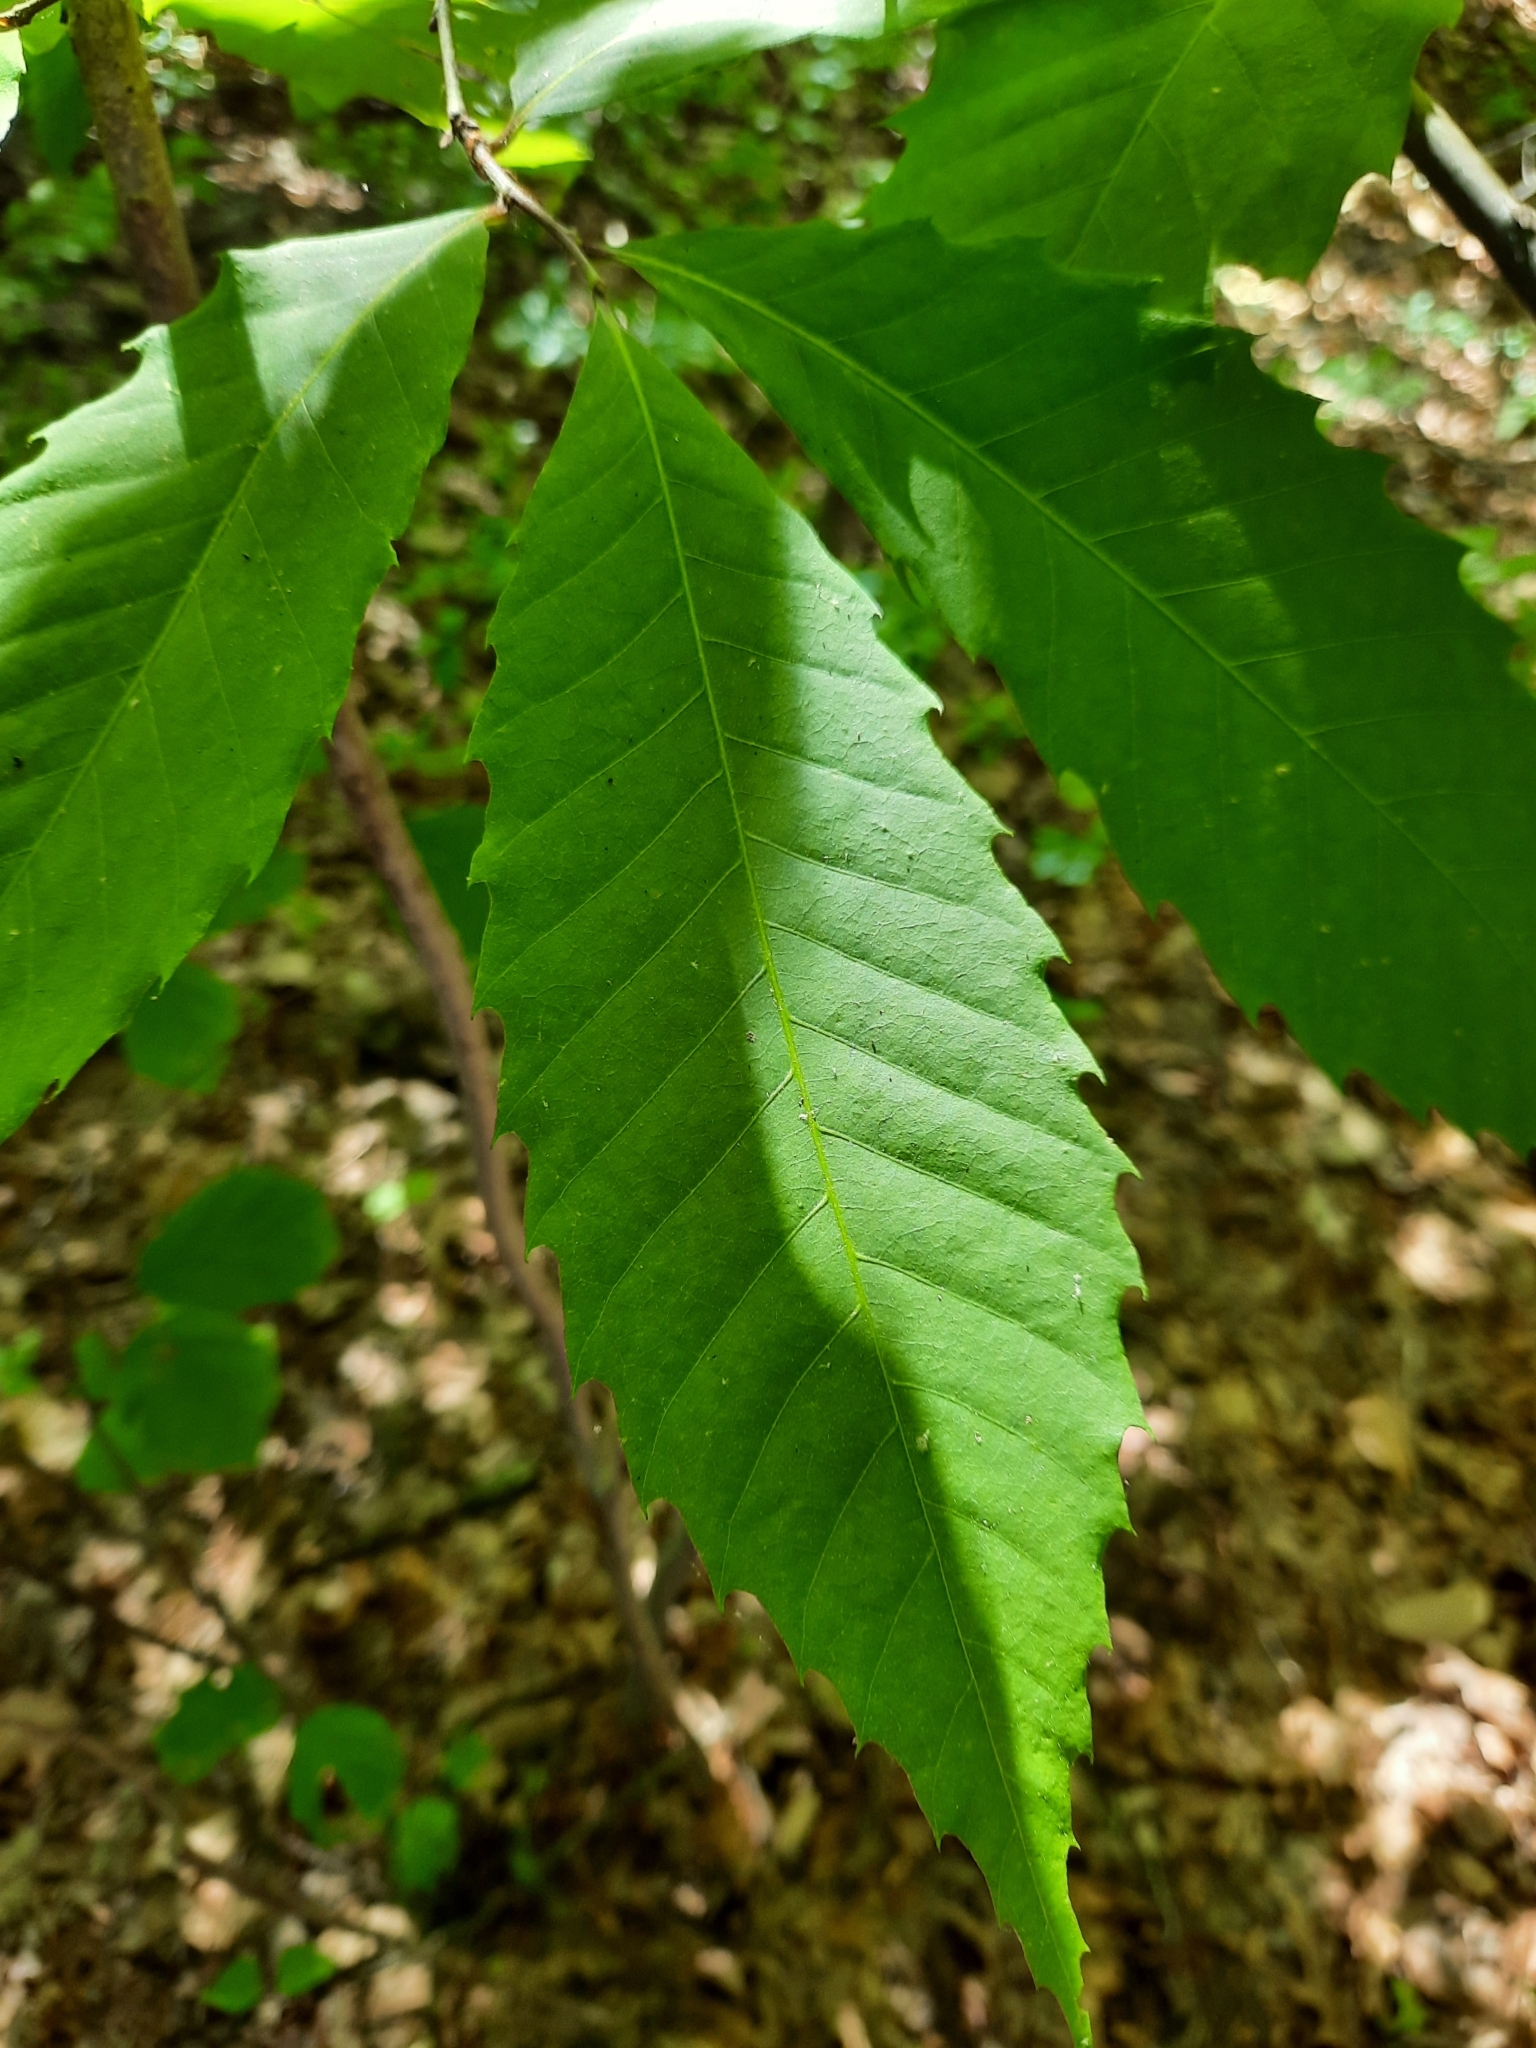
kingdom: Plantae
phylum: Tracheophyta
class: Magnoliopsida
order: Fagales
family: Fagaceae
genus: Castanea
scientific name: Castanea dentata
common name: American chestnut
